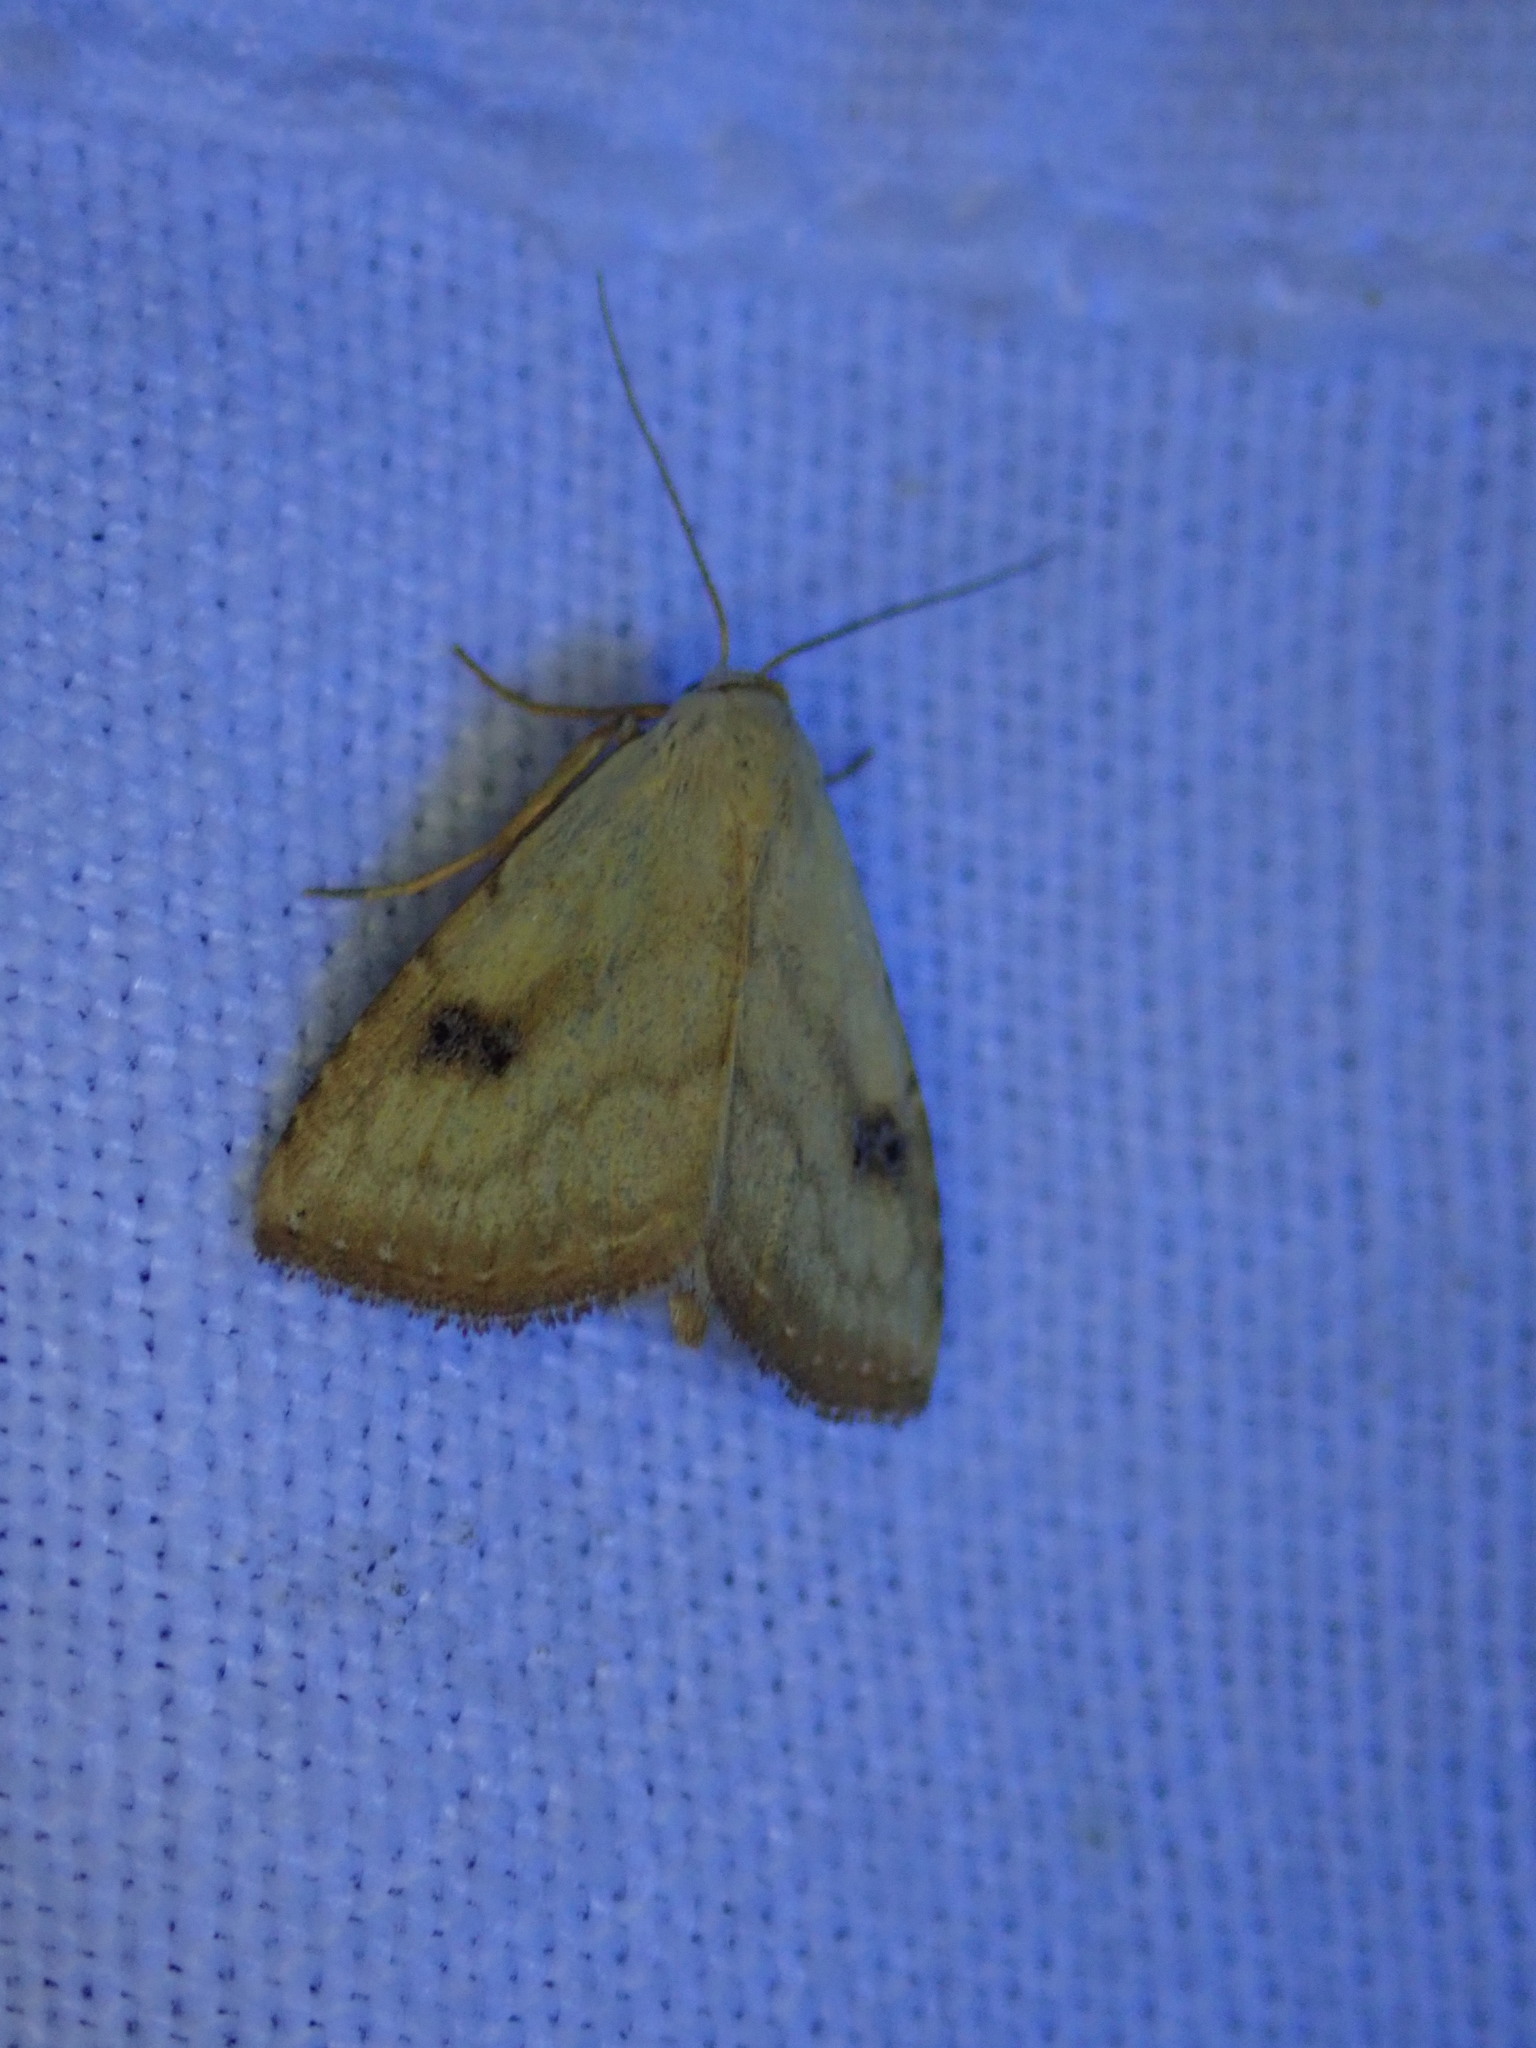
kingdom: Animalia
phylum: Arthropoda
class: Insecta
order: Lepidoptera
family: Erebidae
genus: Rivula
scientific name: Rivula sericealis
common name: Straw dot
